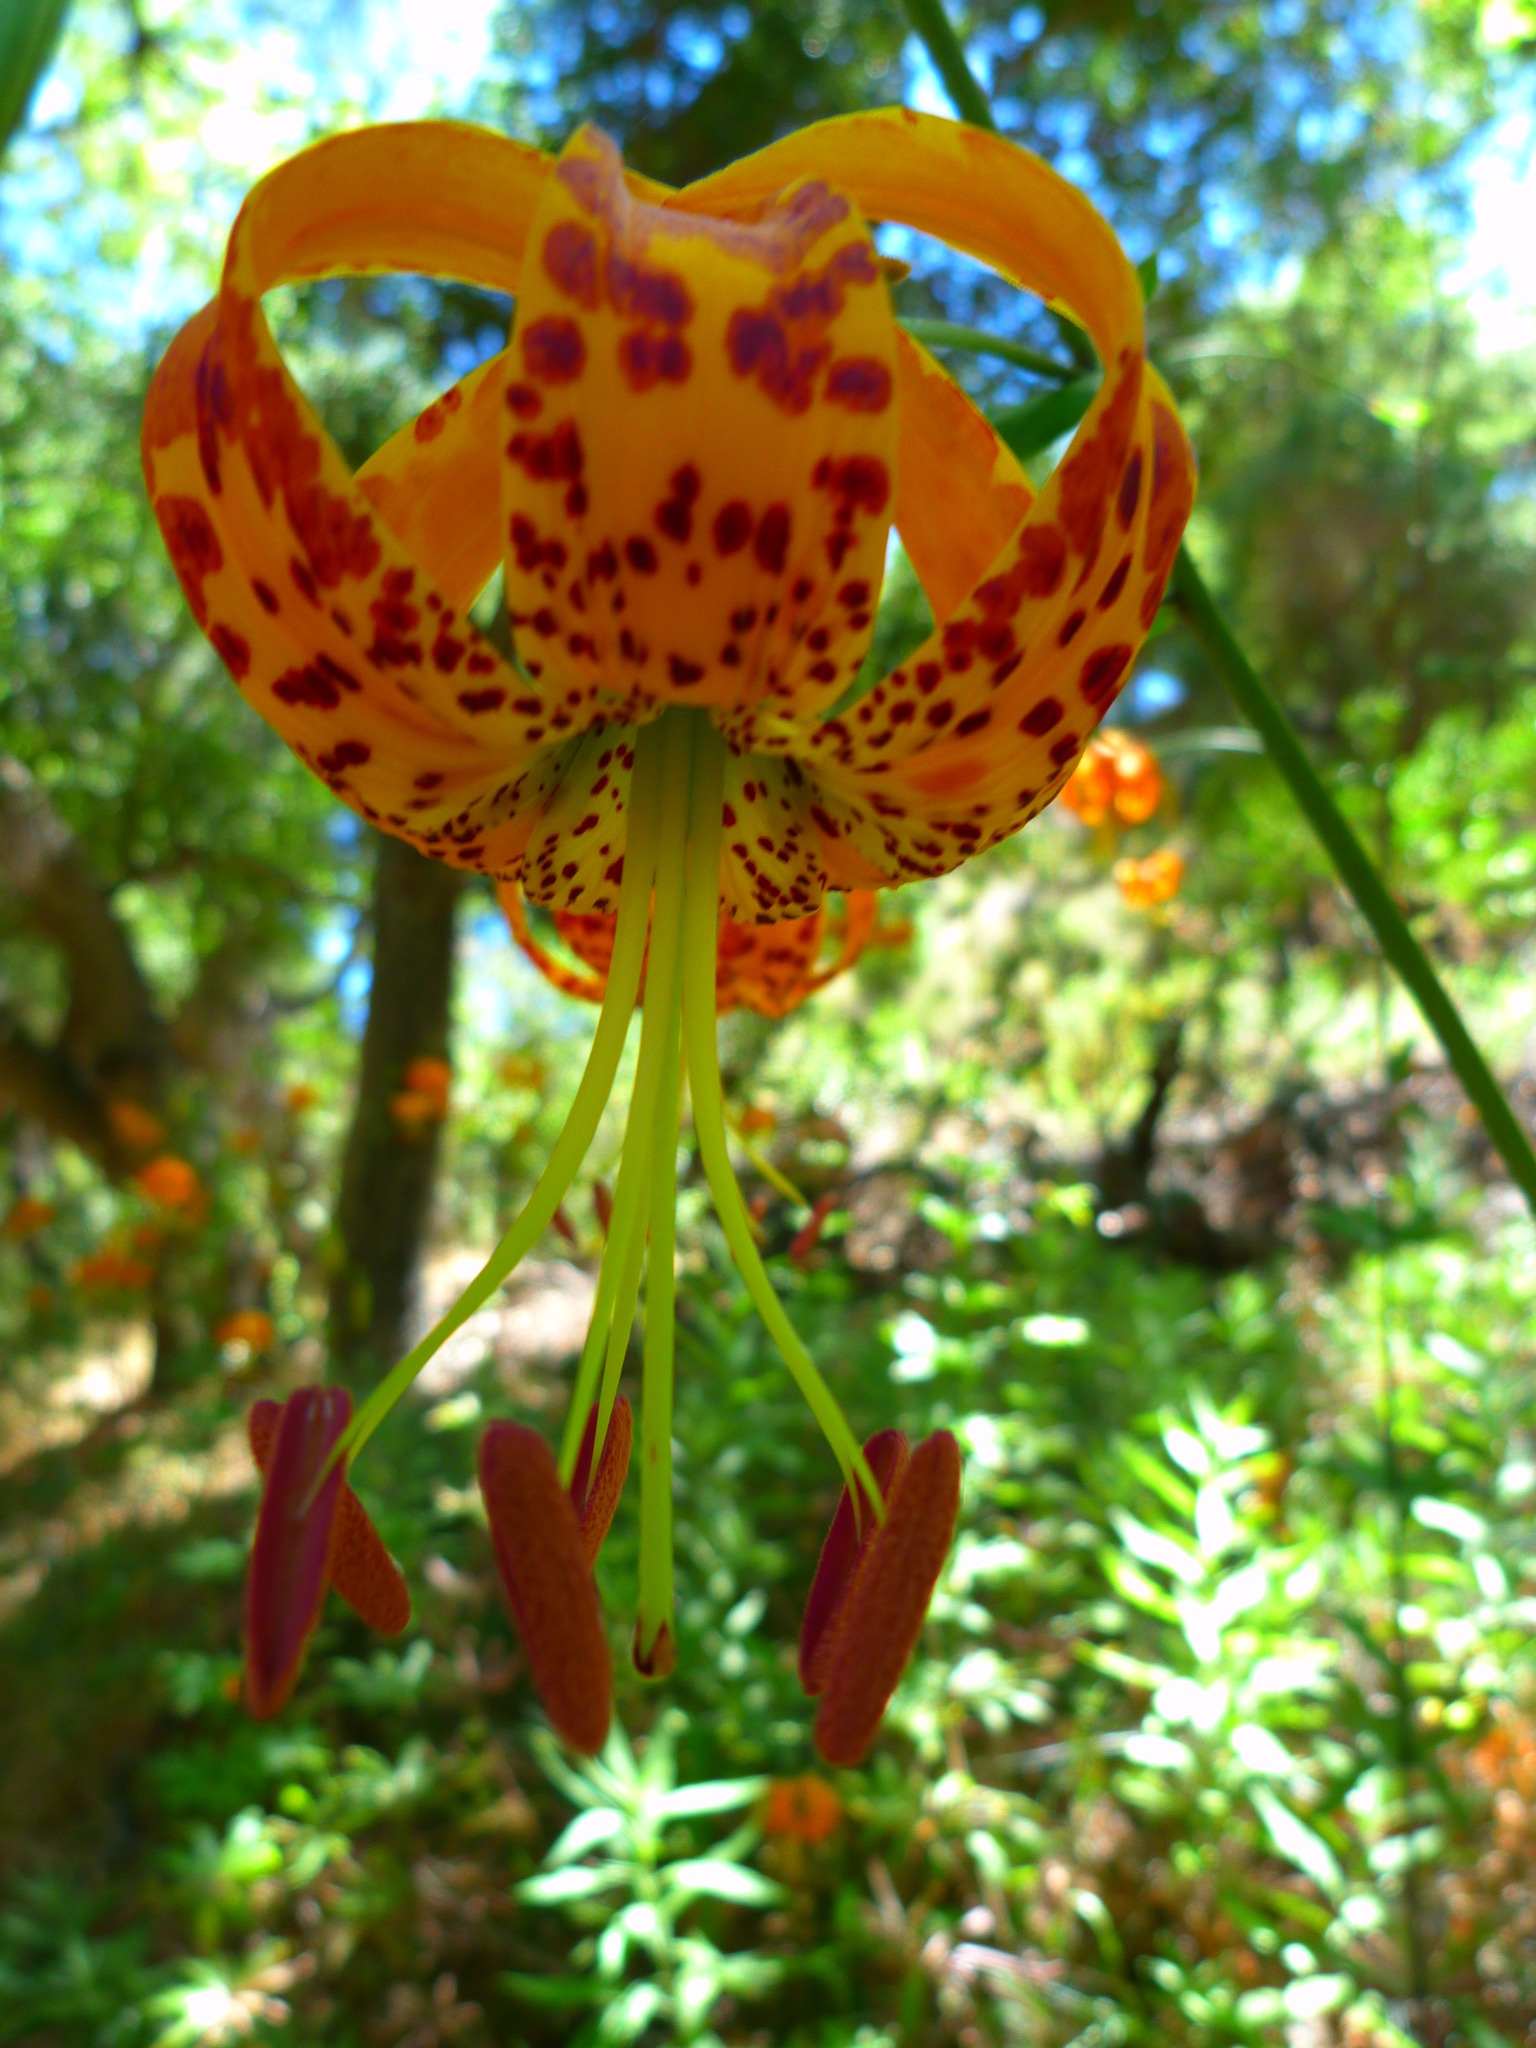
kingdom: Plantae
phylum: Tracheophyta
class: Liliopsida
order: Liliales
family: Liliaceae
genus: Lilium
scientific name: Lilium humboldtii
